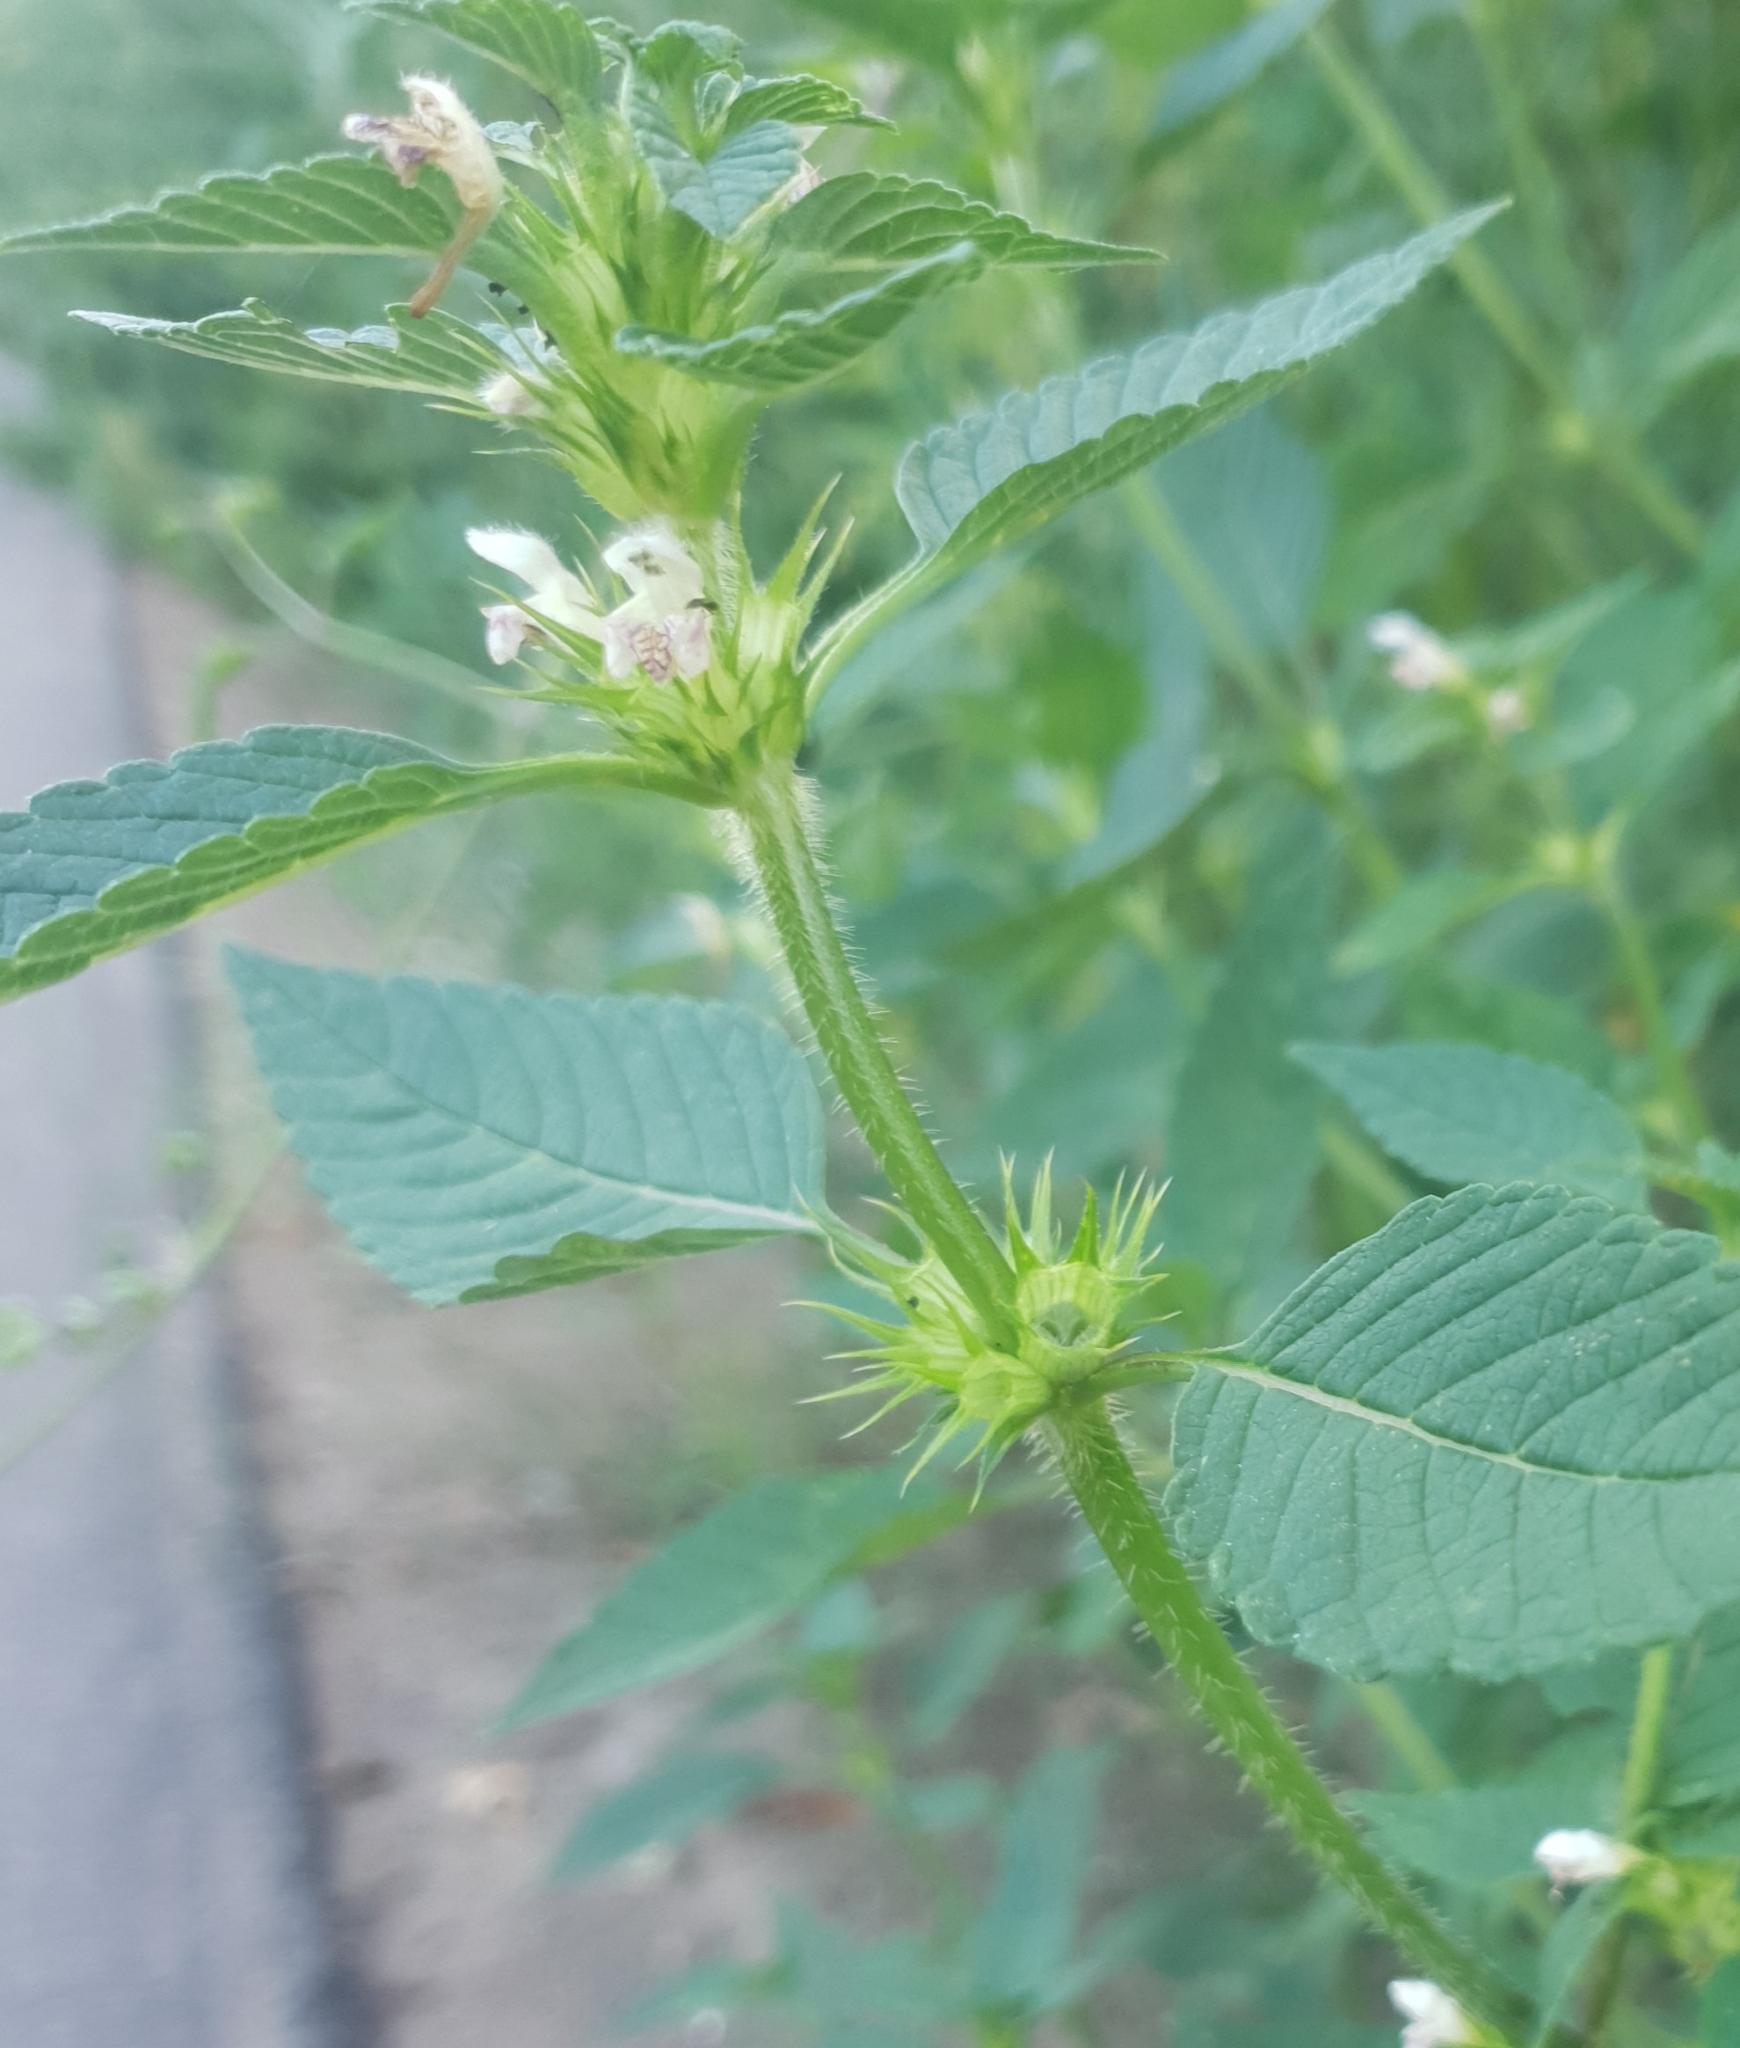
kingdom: Plantae
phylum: Tracheophyta
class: Magnoliopsida
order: Lamiales
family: Lamiaceae
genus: Galeopsis
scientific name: Galeopsis tetrahit
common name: Common hemp-nettle
